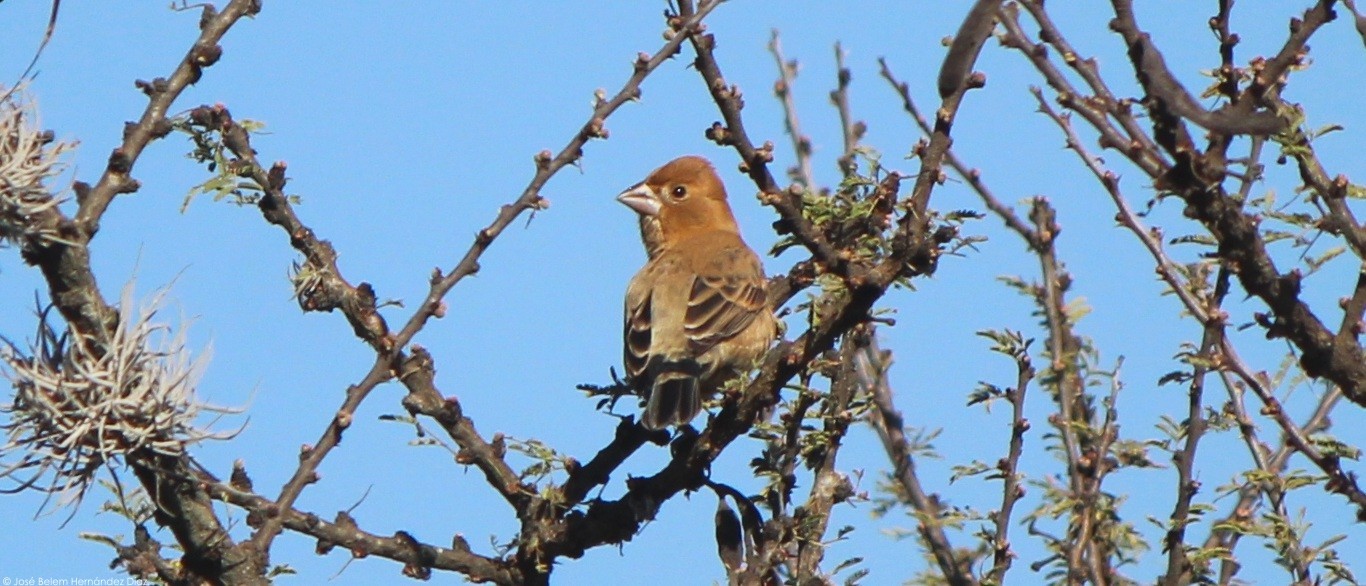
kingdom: Animalia
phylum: Chordata
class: Aves
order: Passeriformes
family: Cardinalidae
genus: Passerina
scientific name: Passerina caerulea
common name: Blue grosbeak
